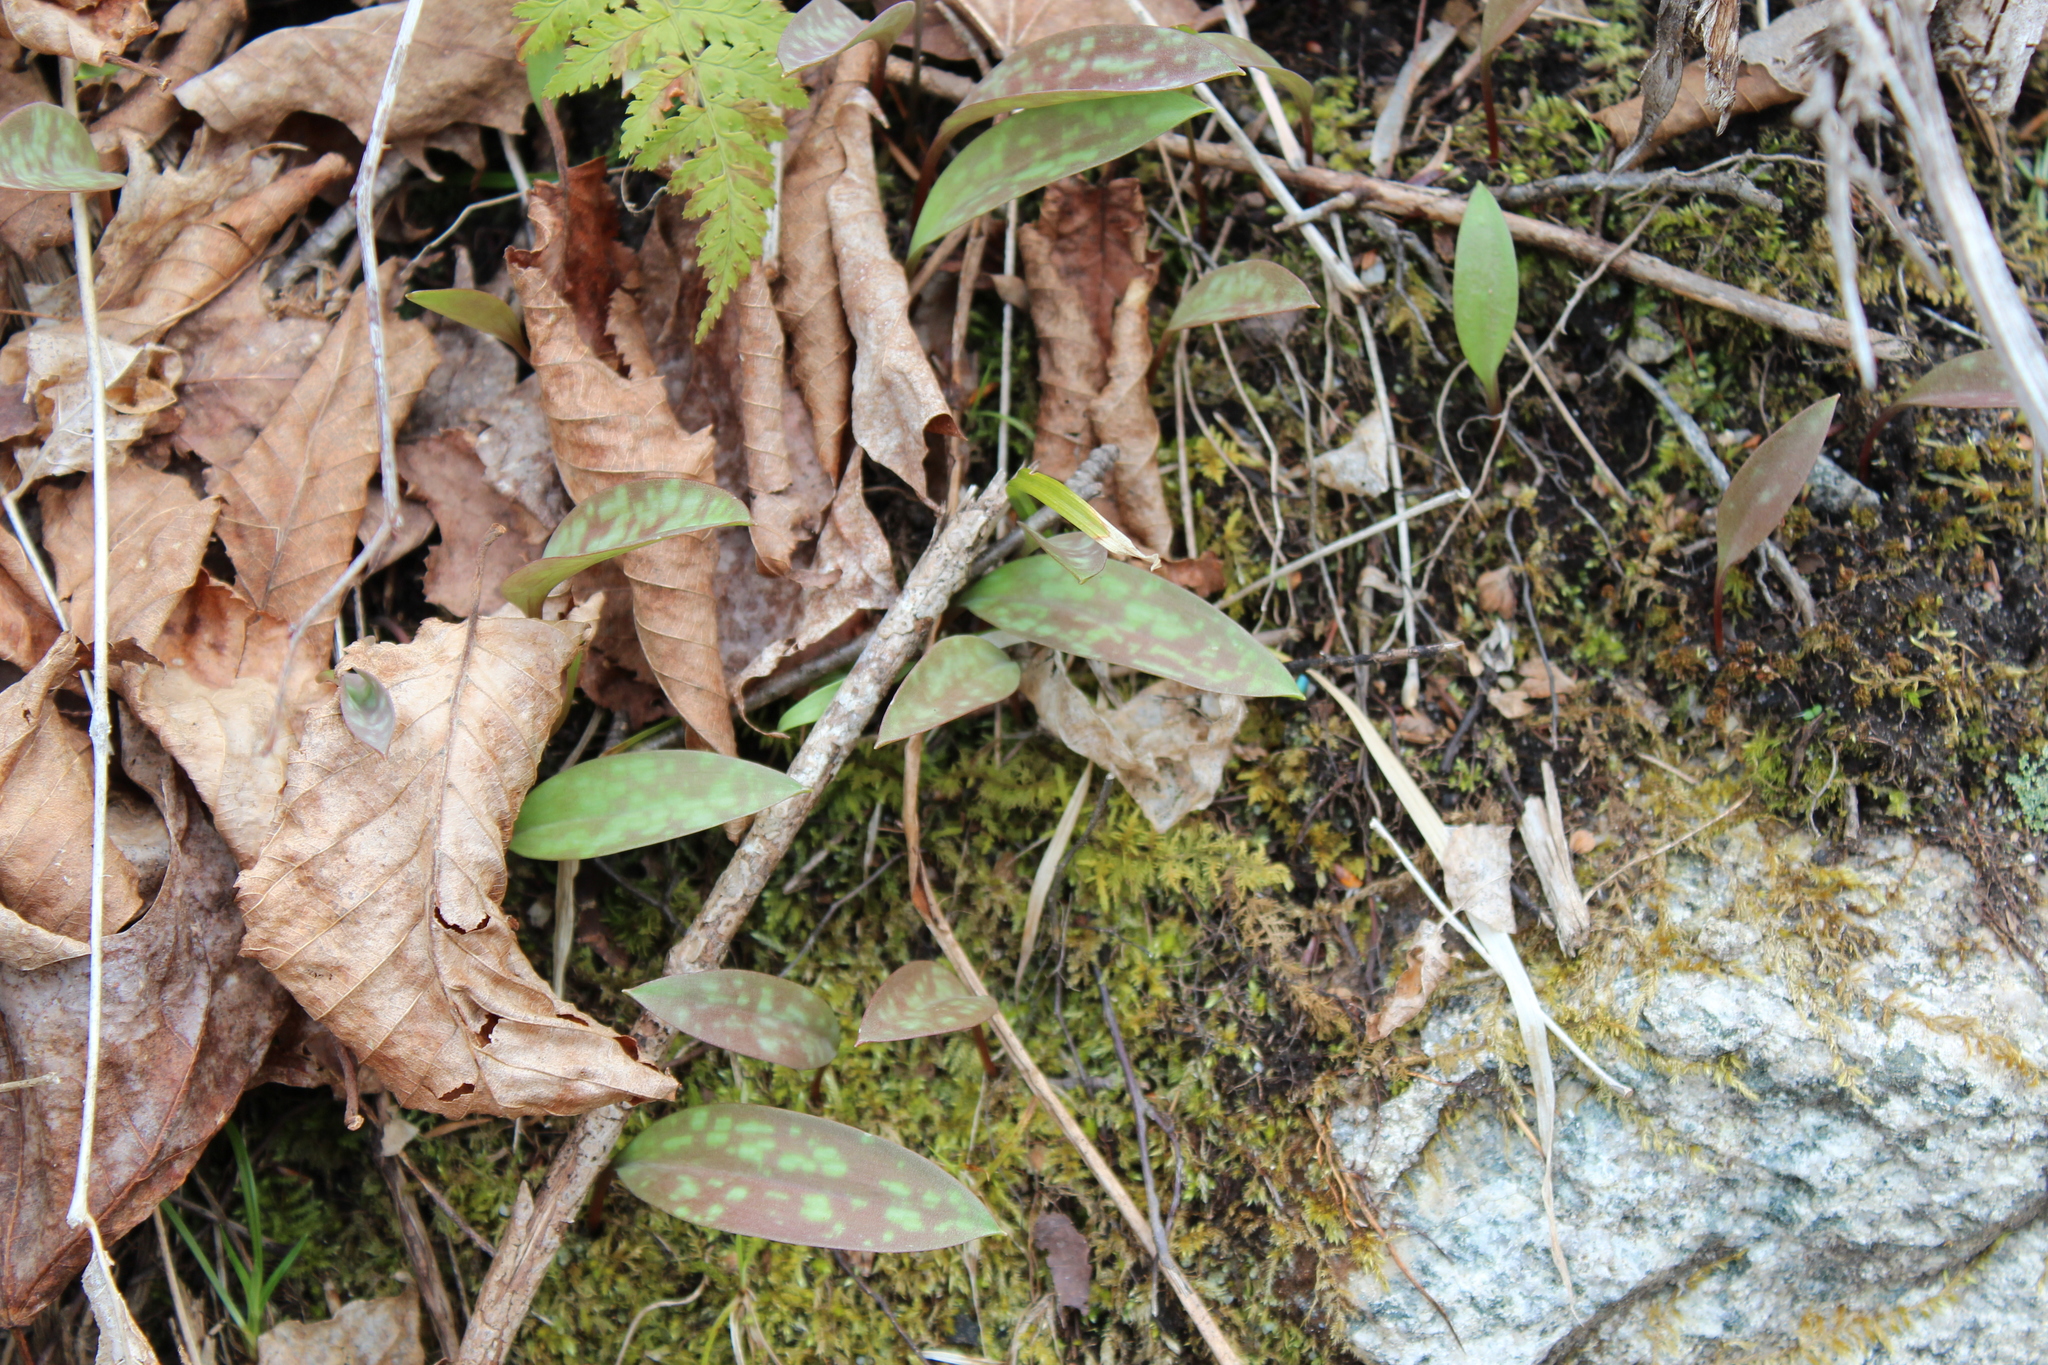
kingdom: Plantae
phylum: Tracheophyta
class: Liliopsida
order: Liliales
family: Liliaceae
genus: Erythronium
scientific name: Erythronium americanum
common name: Yellow adder's-tongue
